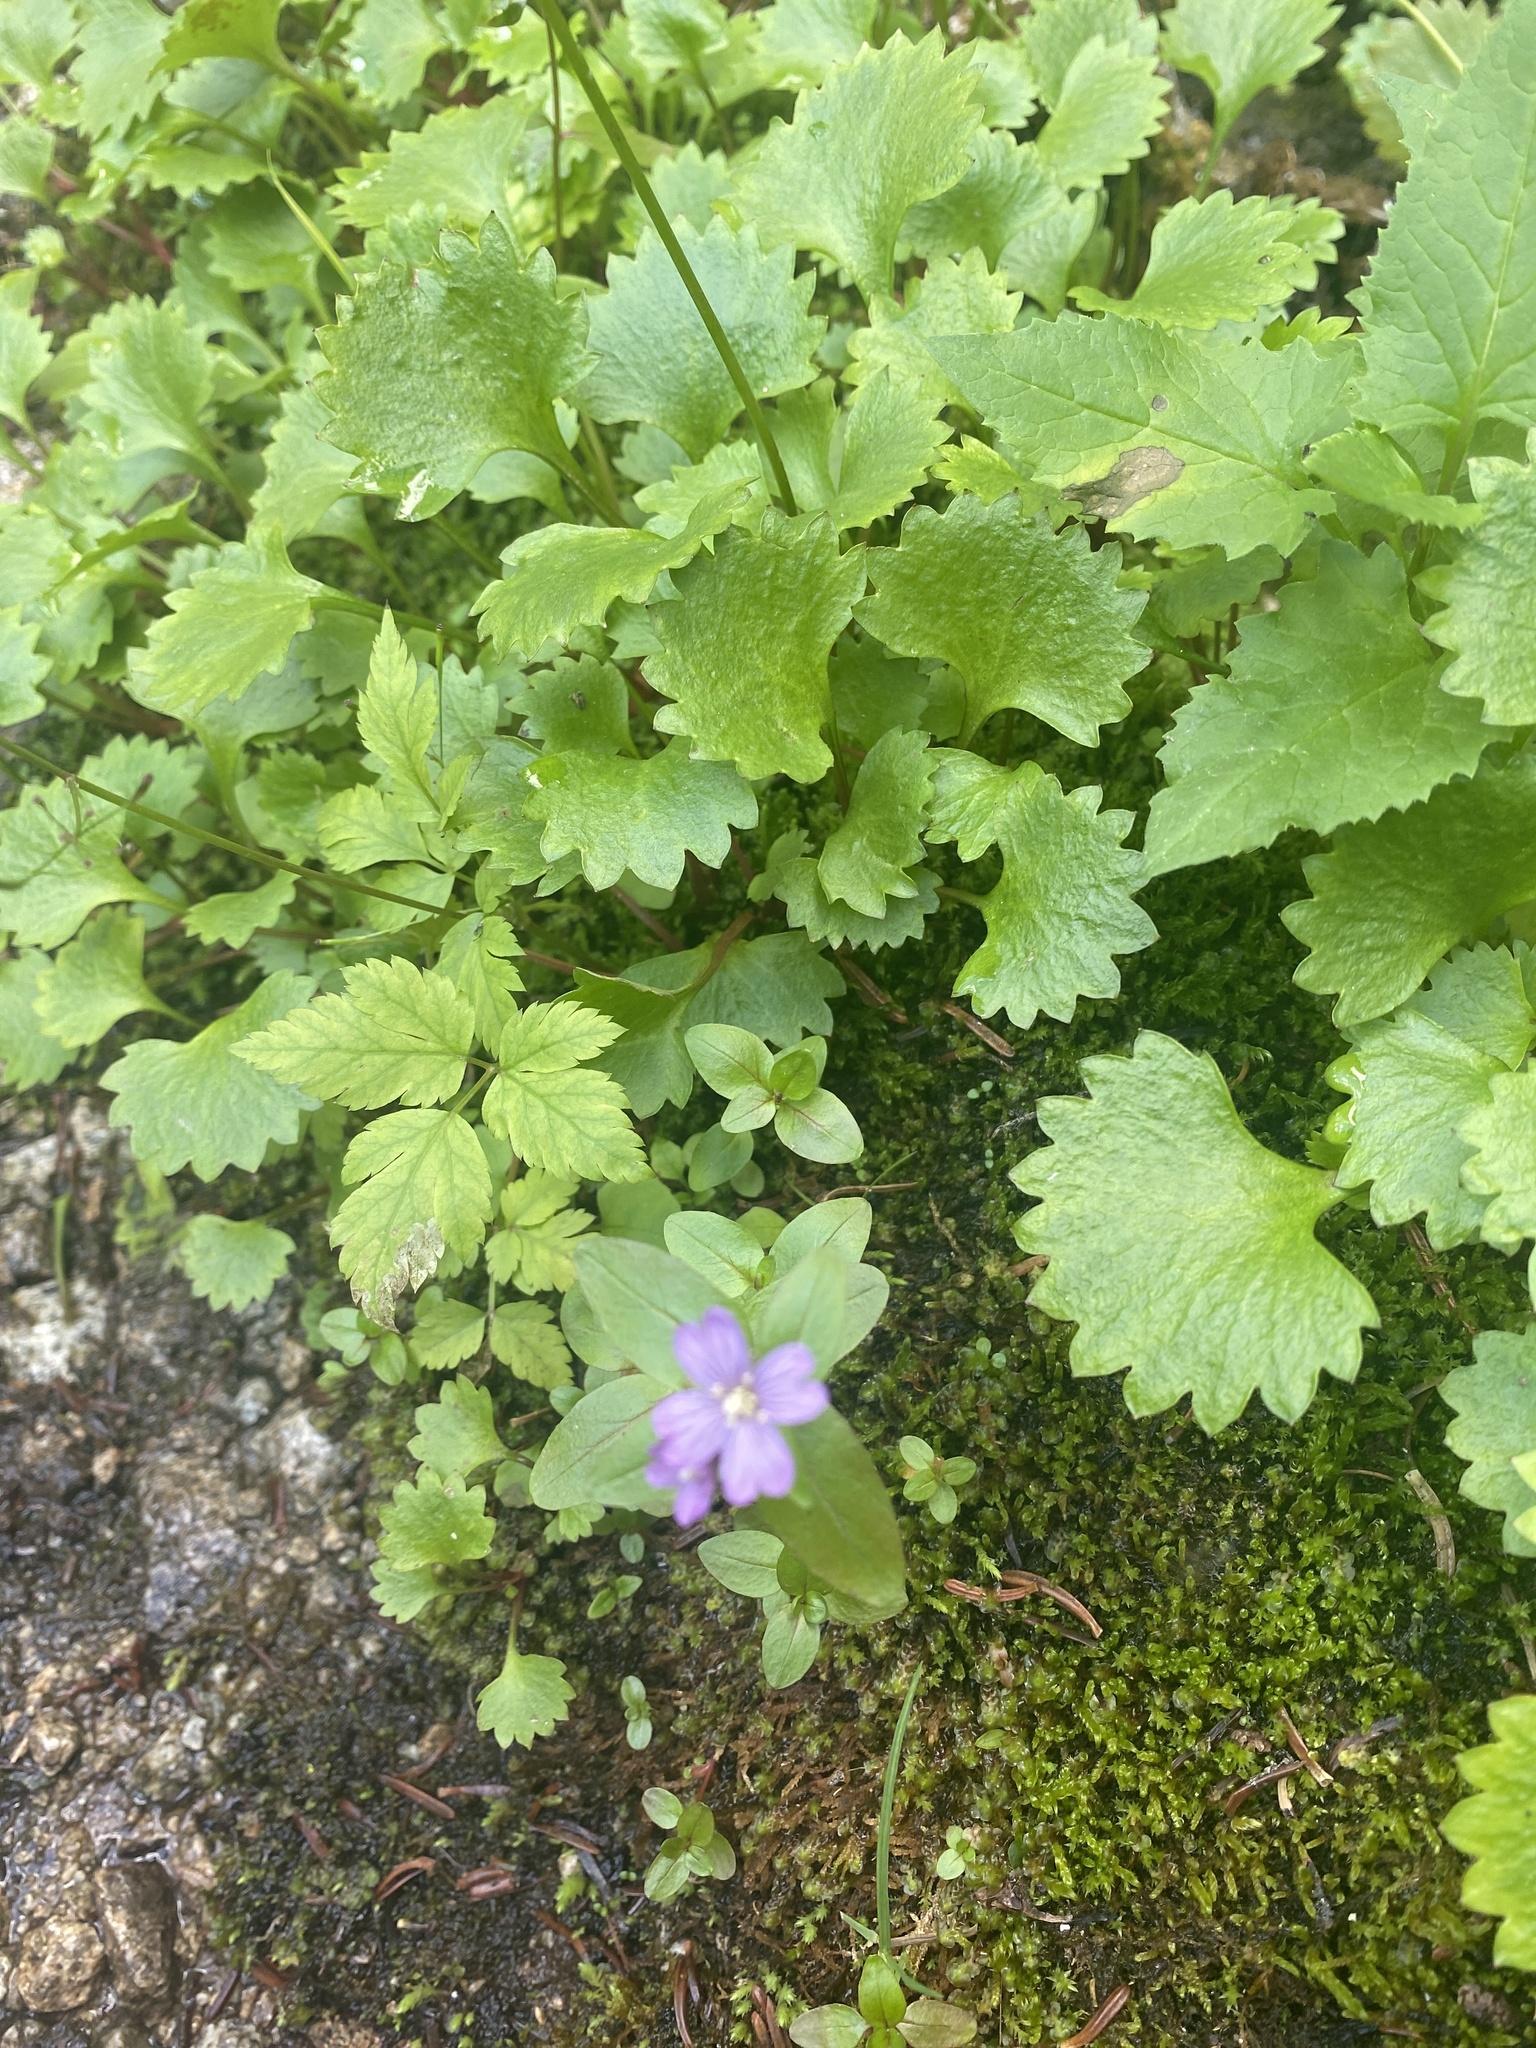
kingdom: Plantae
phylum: Tracheophyta
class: Magnoliopsida
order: Myrtales
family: Onagraceae
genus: Epilobium
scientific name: Epilobium ciliatum
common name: American willowherb
